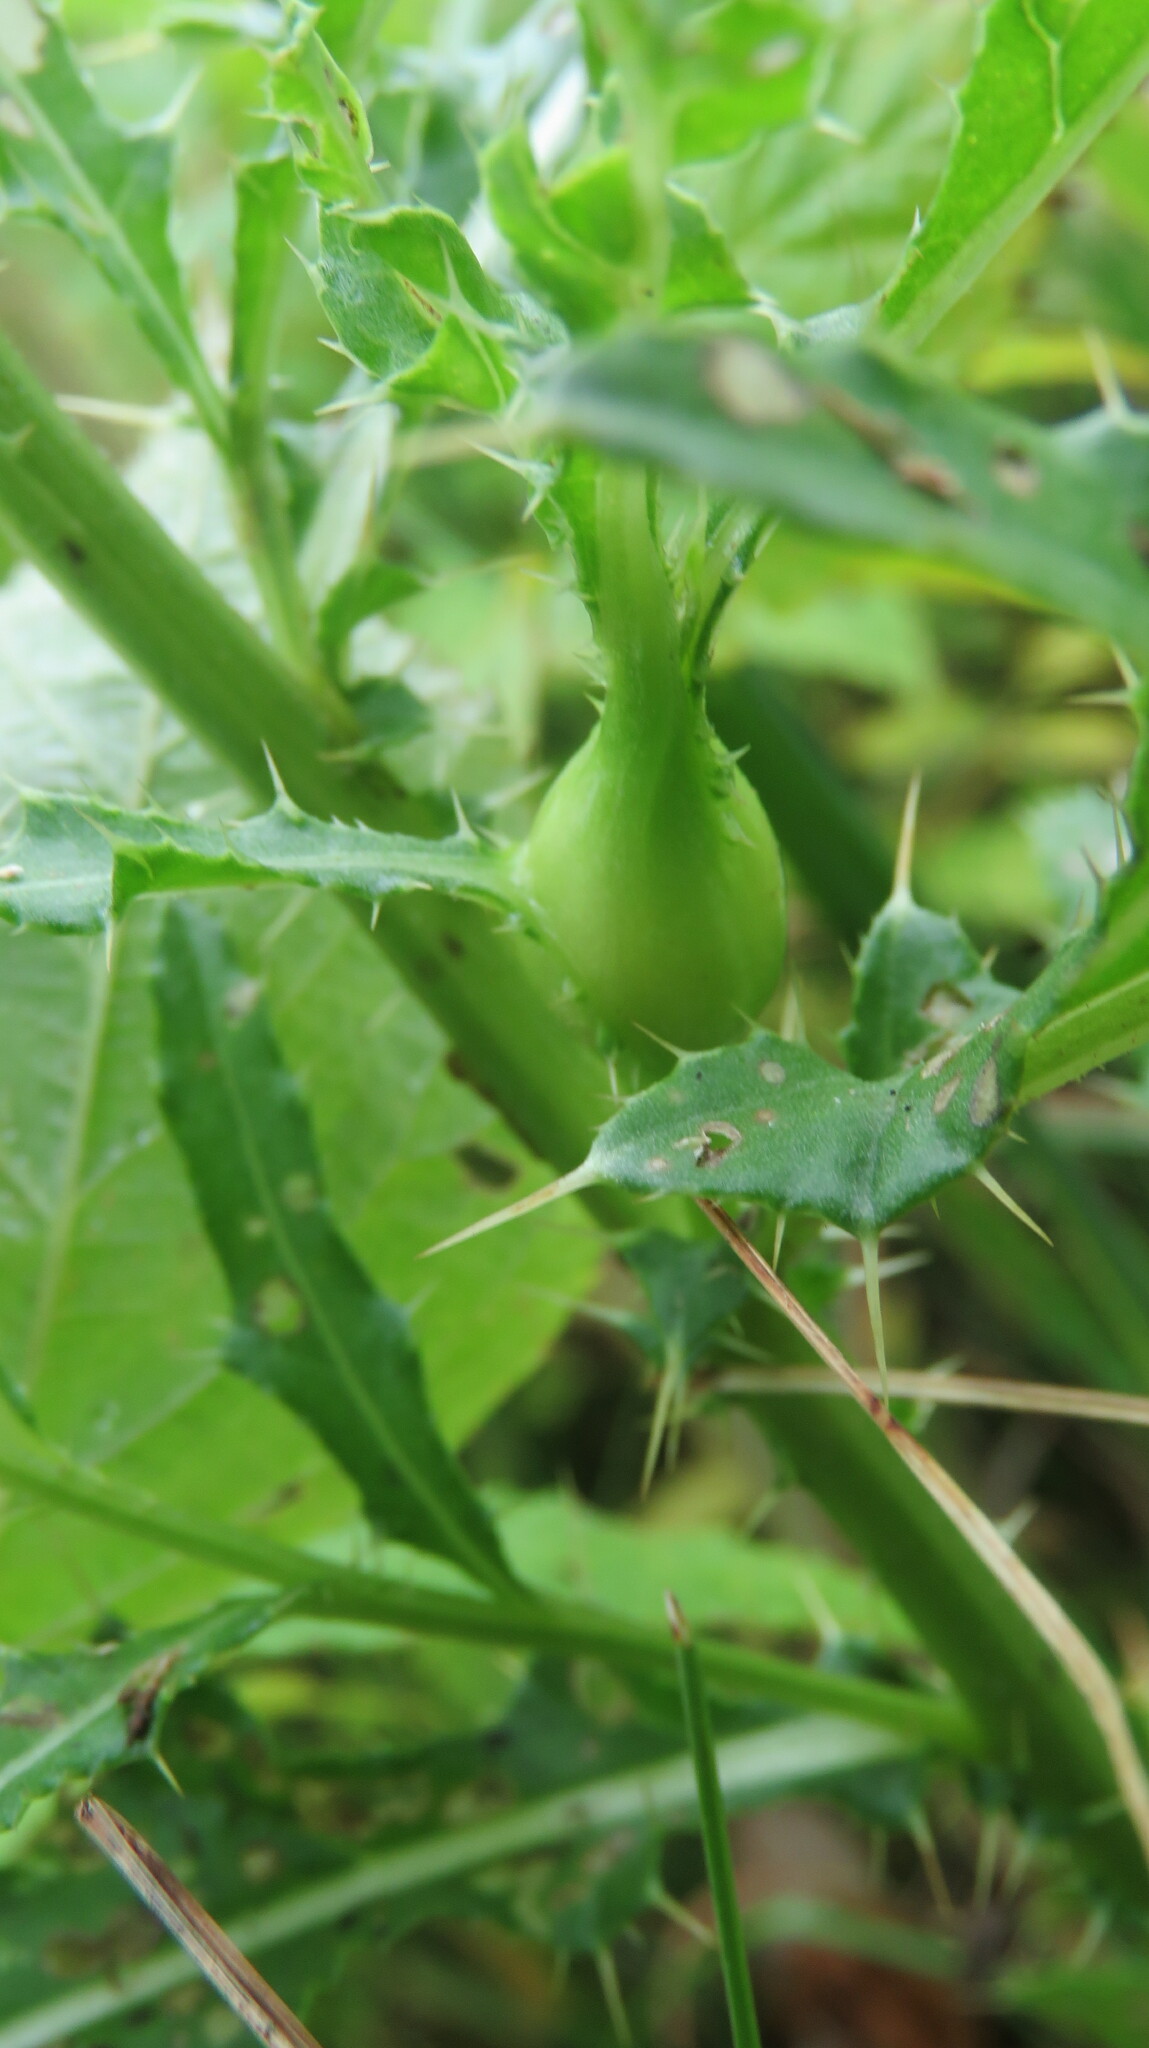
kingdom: Animalia
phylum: Arthropoda
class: Insecta
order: Diptera
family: Tephritidae
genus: Urophora
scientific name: Urophora cardui
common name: Fruit fly
